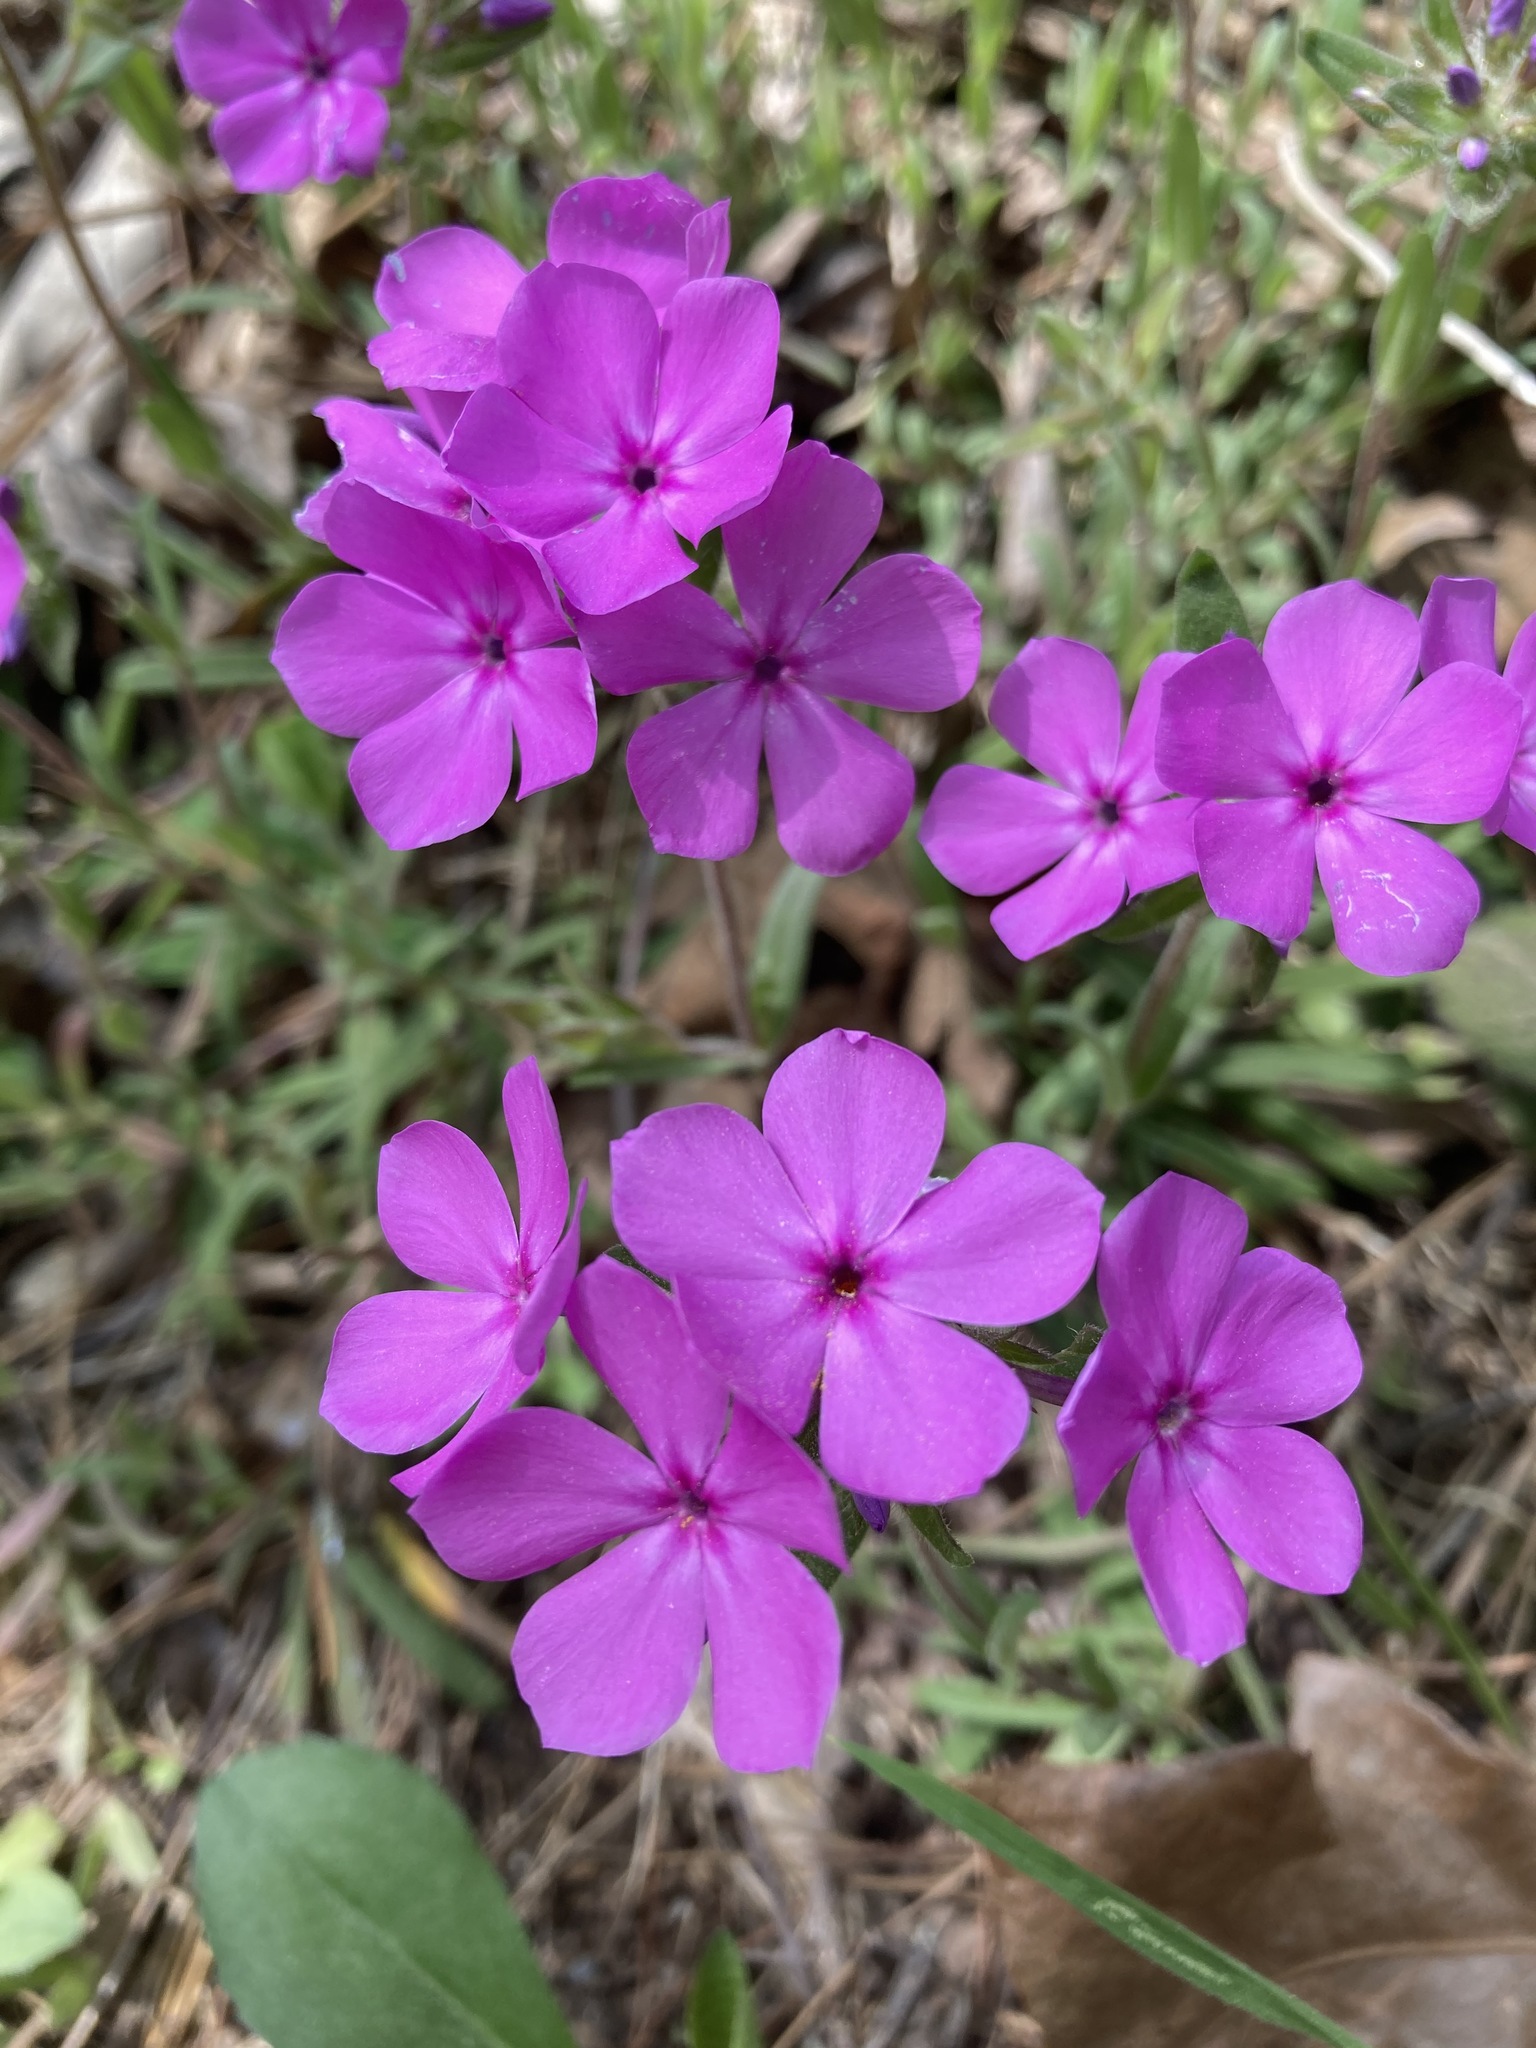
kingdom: Plantae
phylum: Tracheophyta
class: Magnoliopsida
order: Ericales
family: Polemoniaceae
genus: Phlox
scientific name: Phlox amoena
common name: Hairy phlox
